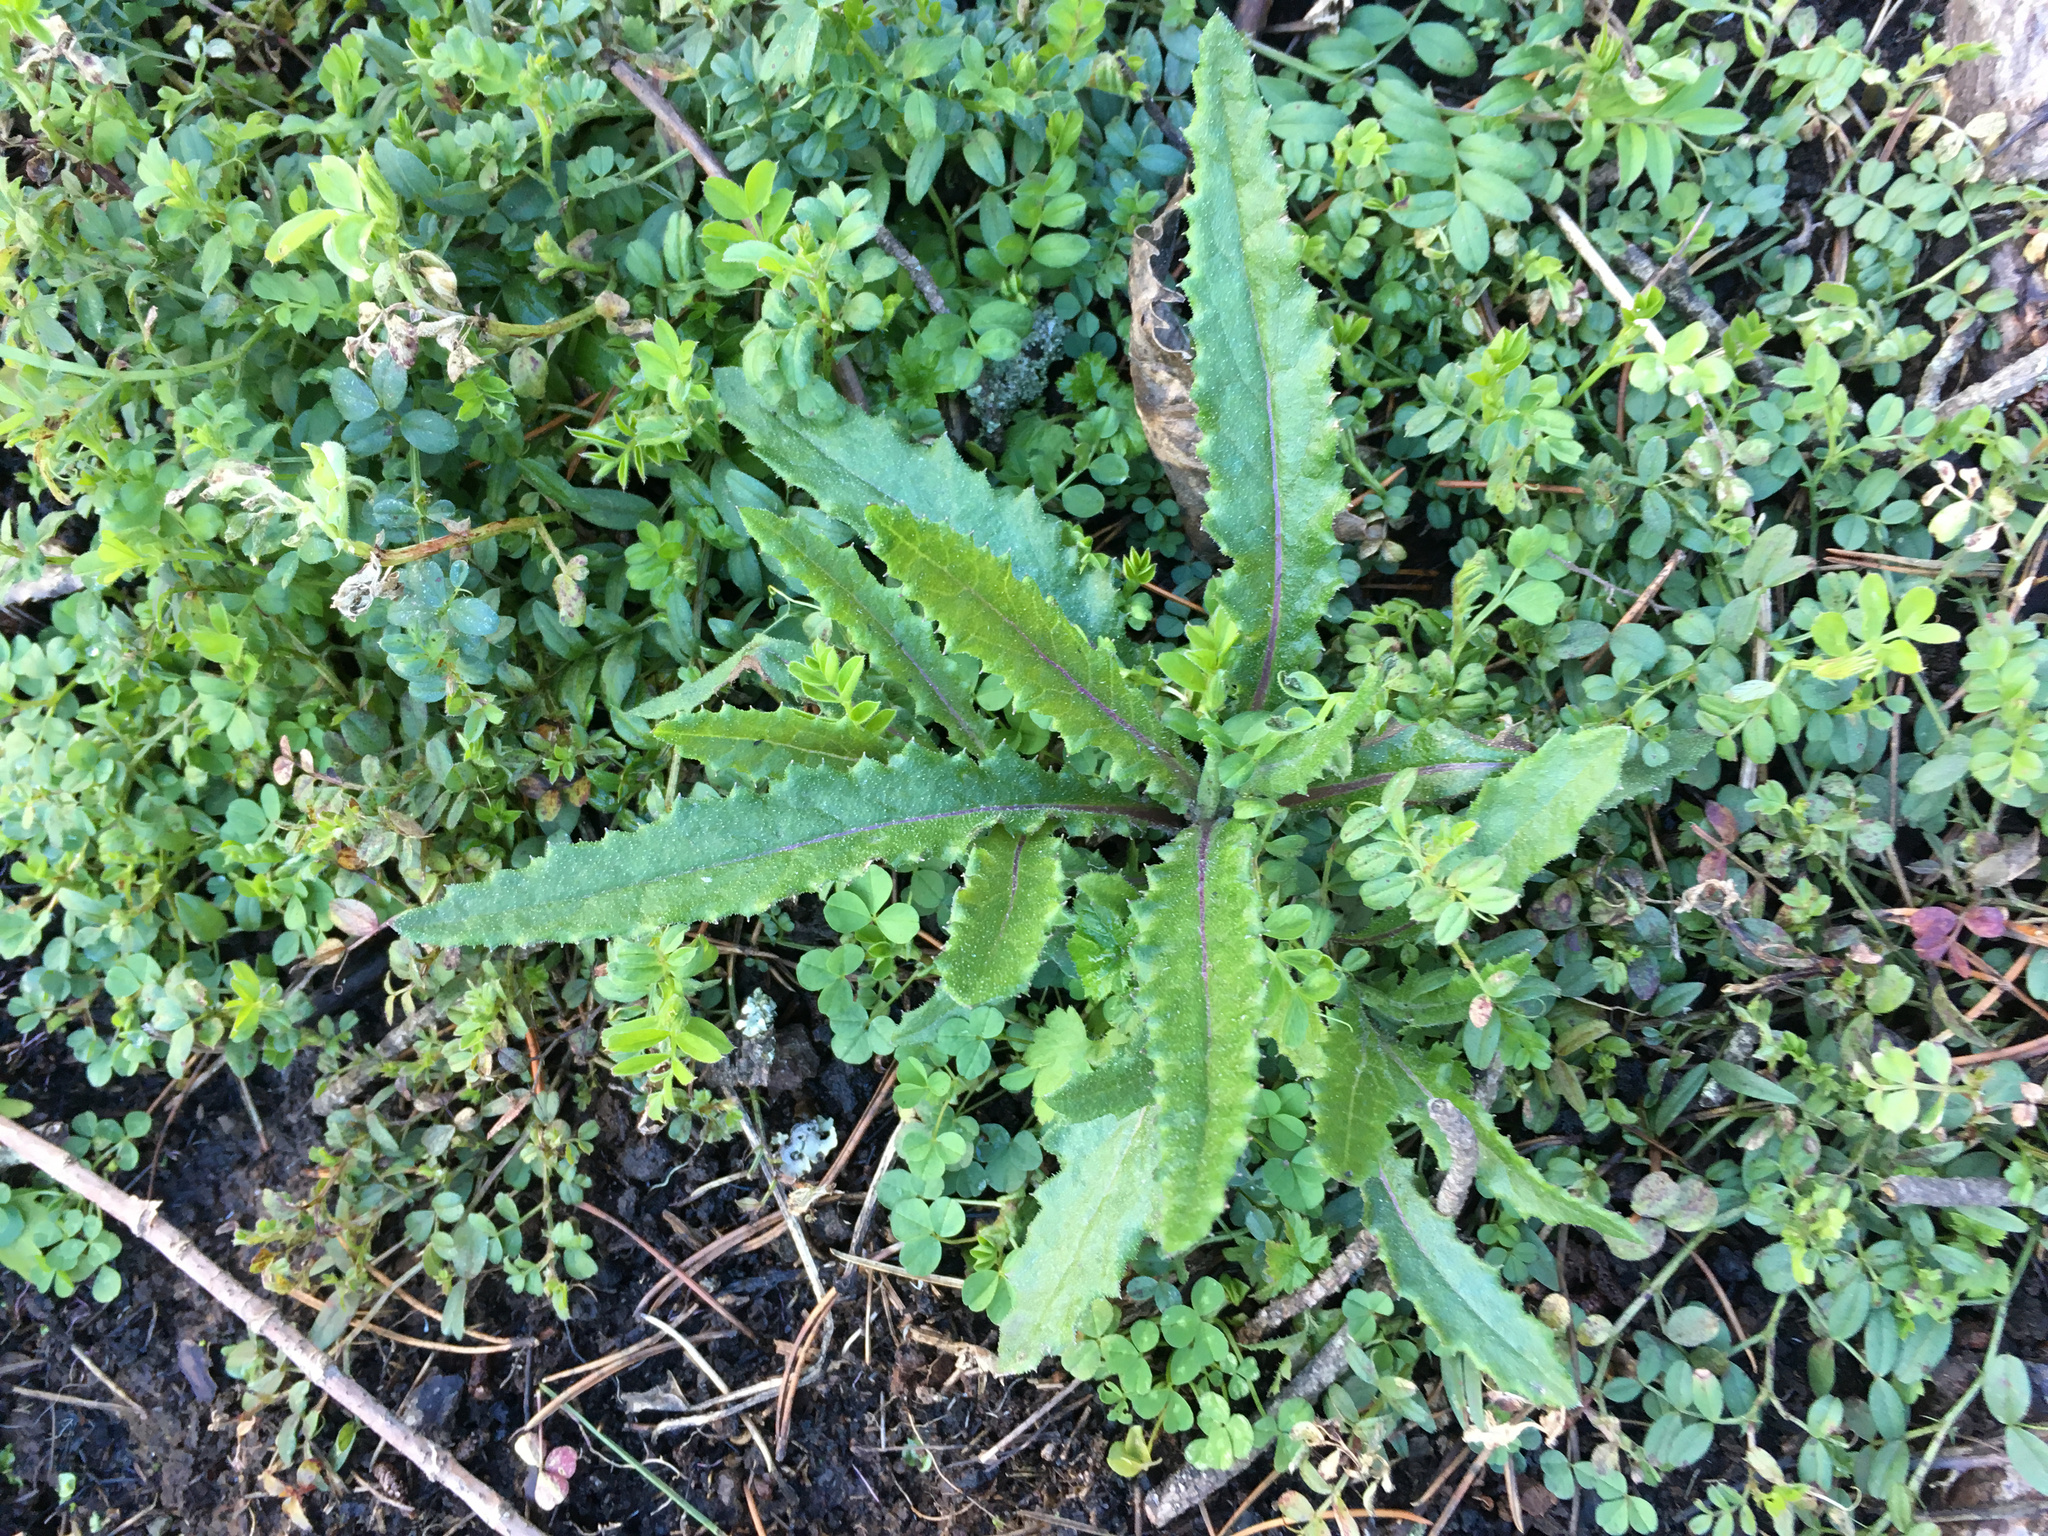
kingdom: Plantae
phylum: Tracheophyta
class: Magnoliopsida
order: Asterales
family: Asteraceae
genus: Senecio
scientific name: Senecio minimus
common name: Toothed fireweed
